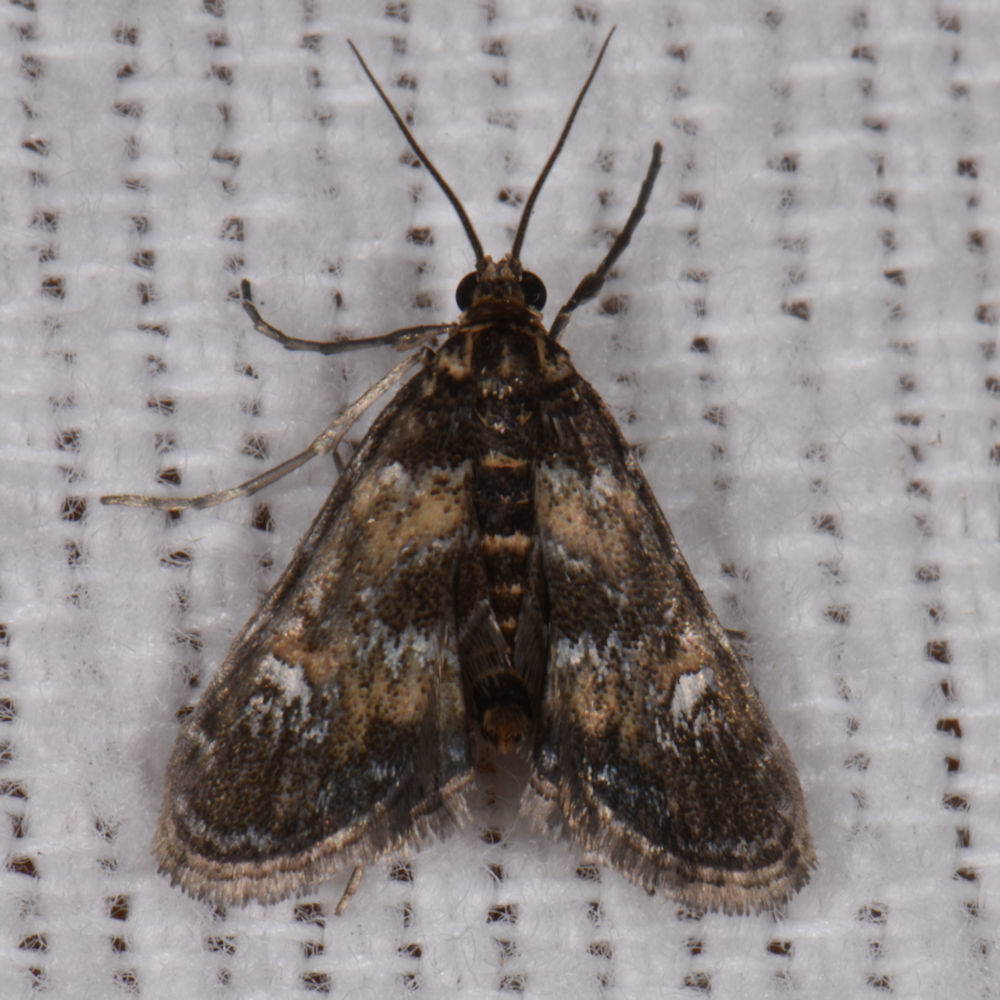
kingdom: Animalia
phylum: Arthropoda
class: Insecta
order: Lepidoptera
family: Crambidae
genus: Elophila
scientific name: Elophila obliteralis
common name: Waterlily leafcutter moth
